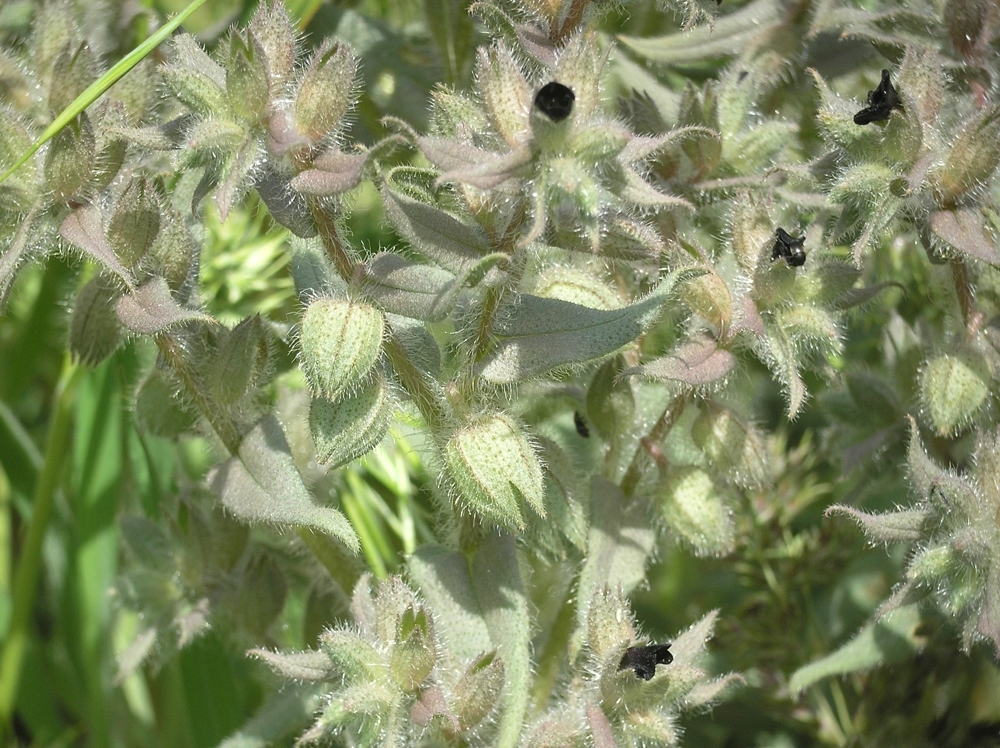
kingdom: Plantae
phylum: Tracheophyta
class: Magnoliopsida
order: Boraginales
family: Boraginaceae
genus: Nonea
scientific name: Nonea pulla
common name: Brown nonea
